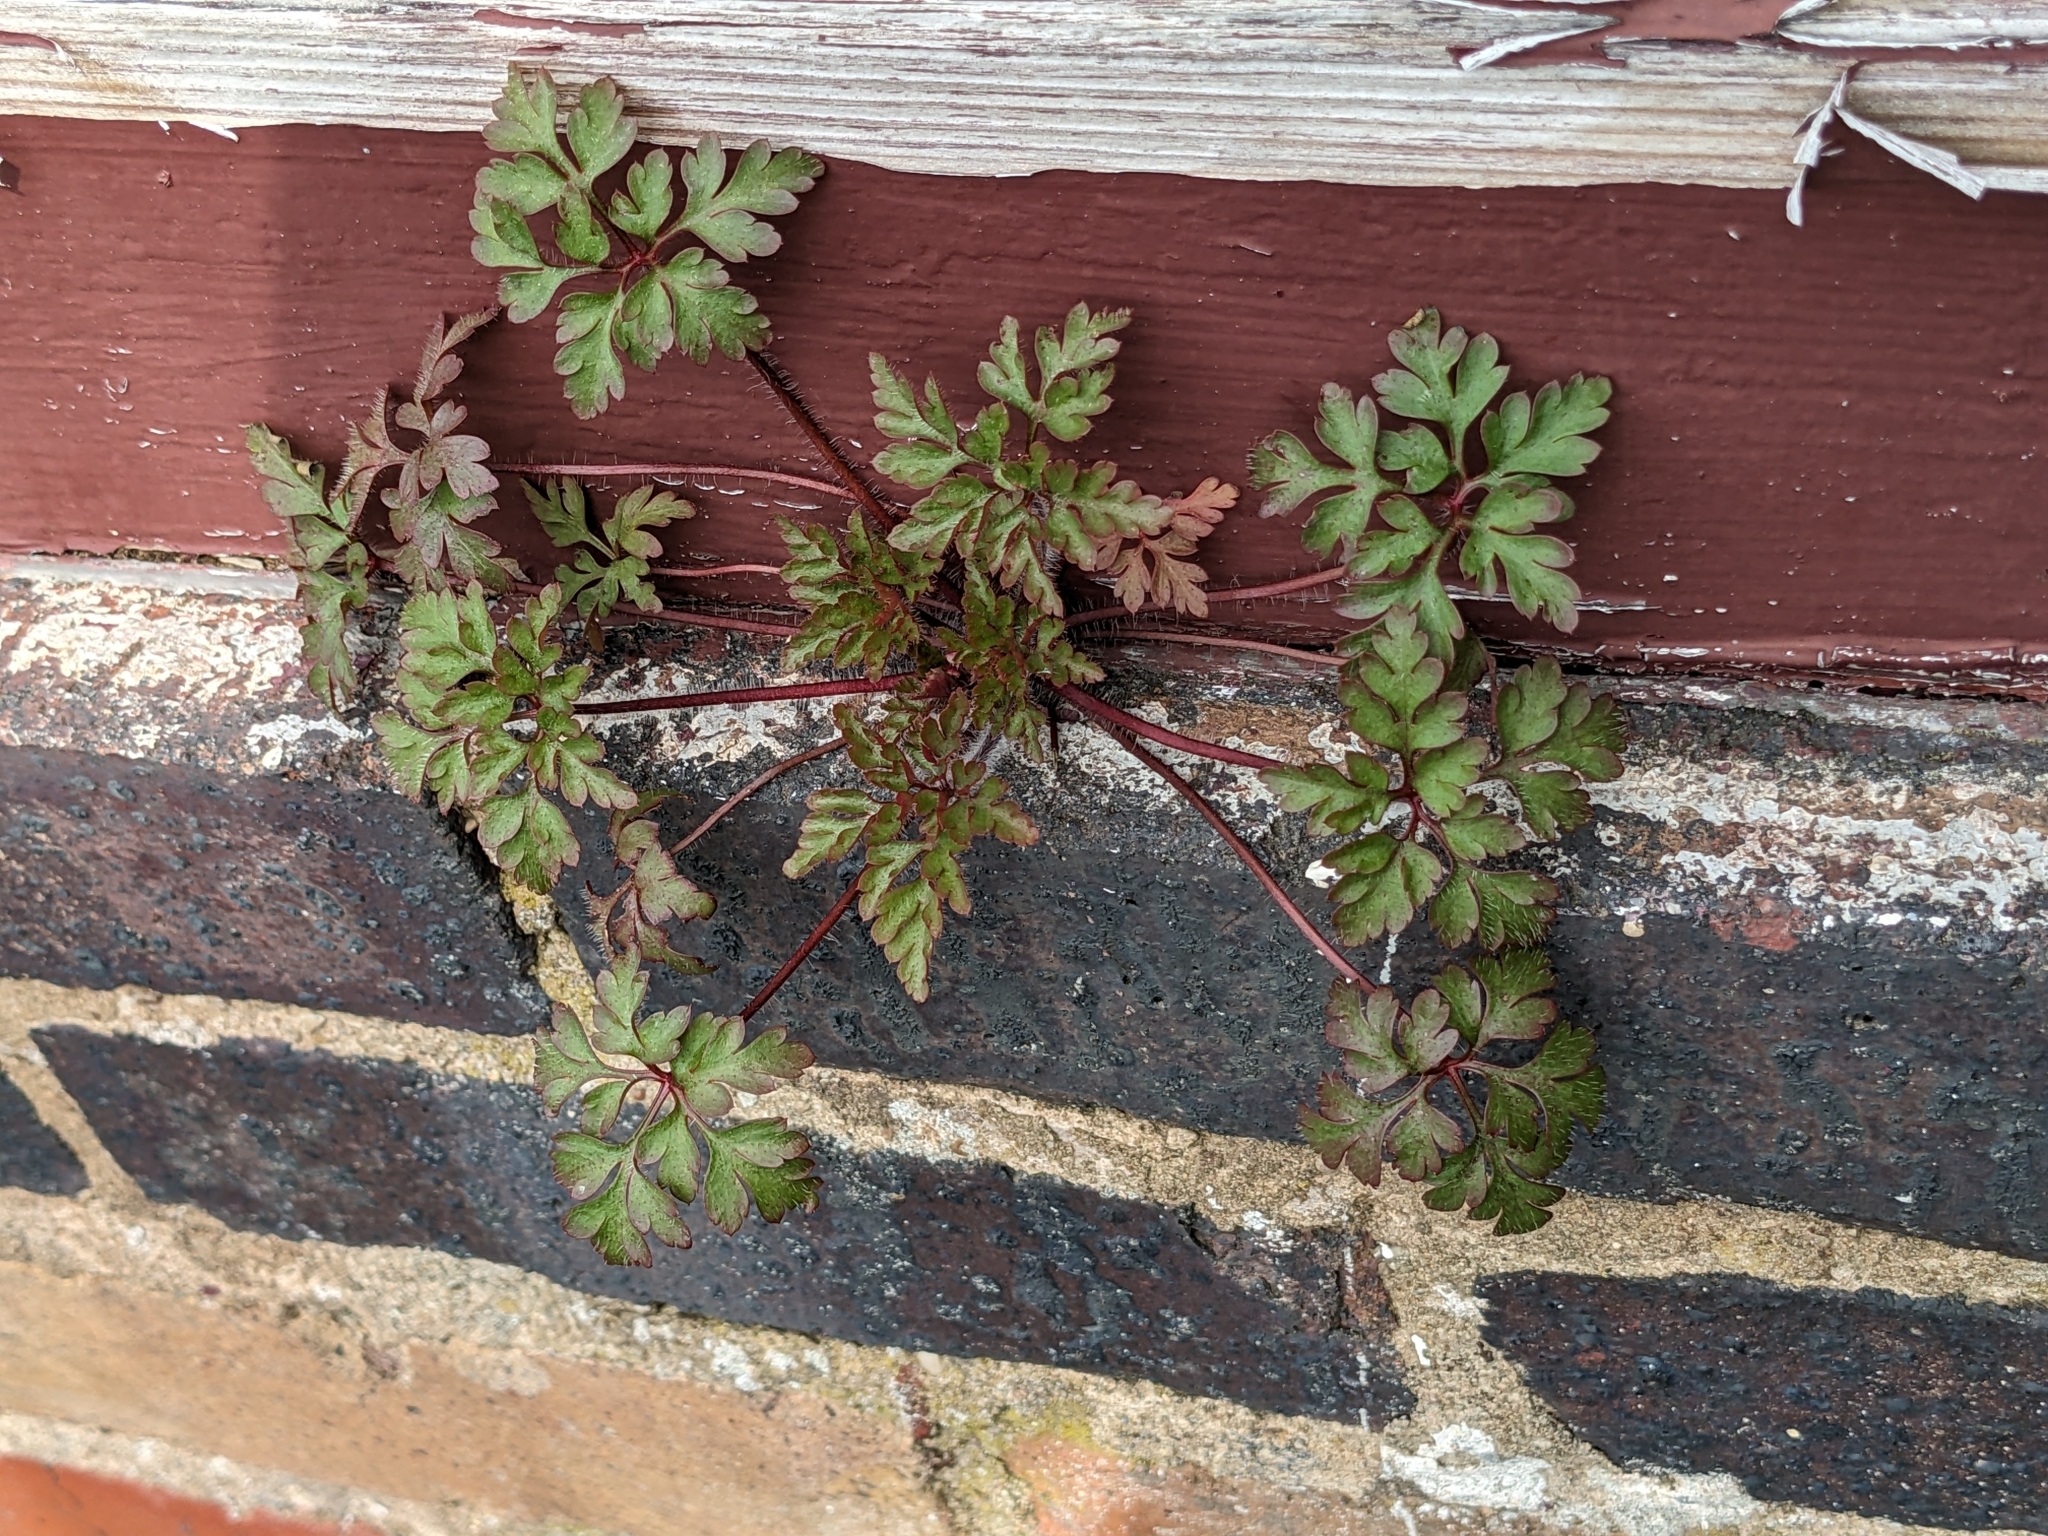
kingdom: Plantae
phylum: Tracheophyta
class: Magnoliopsida
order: Geraniales
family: Geraniaceae
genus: Geranium
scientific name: Geranium robertianum
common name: Herb-robert
